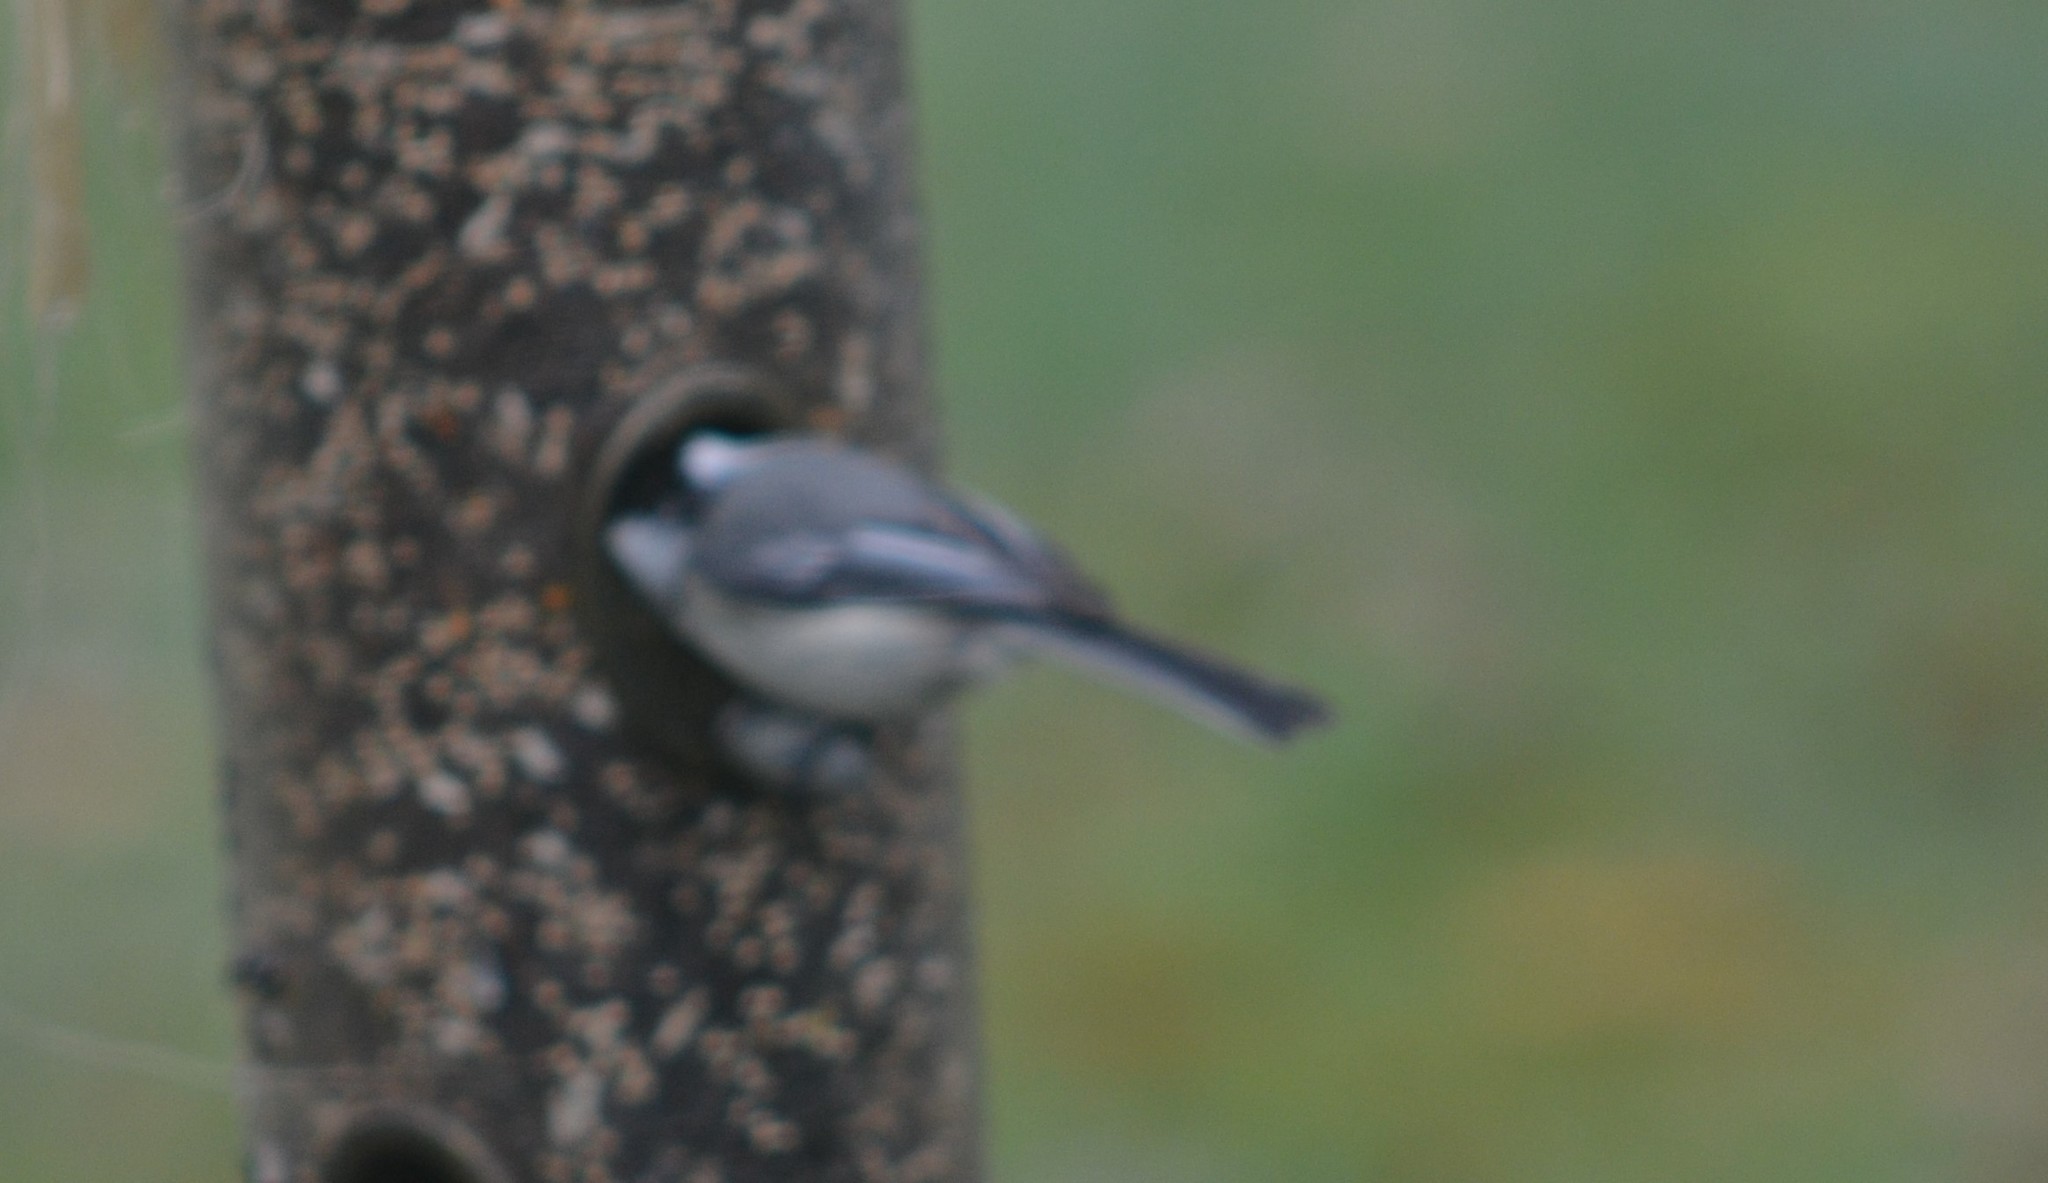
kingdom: Animalia
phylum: Chordata
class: Aves
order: Passeriformes
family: Paridae
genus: Poecile
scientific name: Poecile atricapillus
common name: Black-capped chickadee
